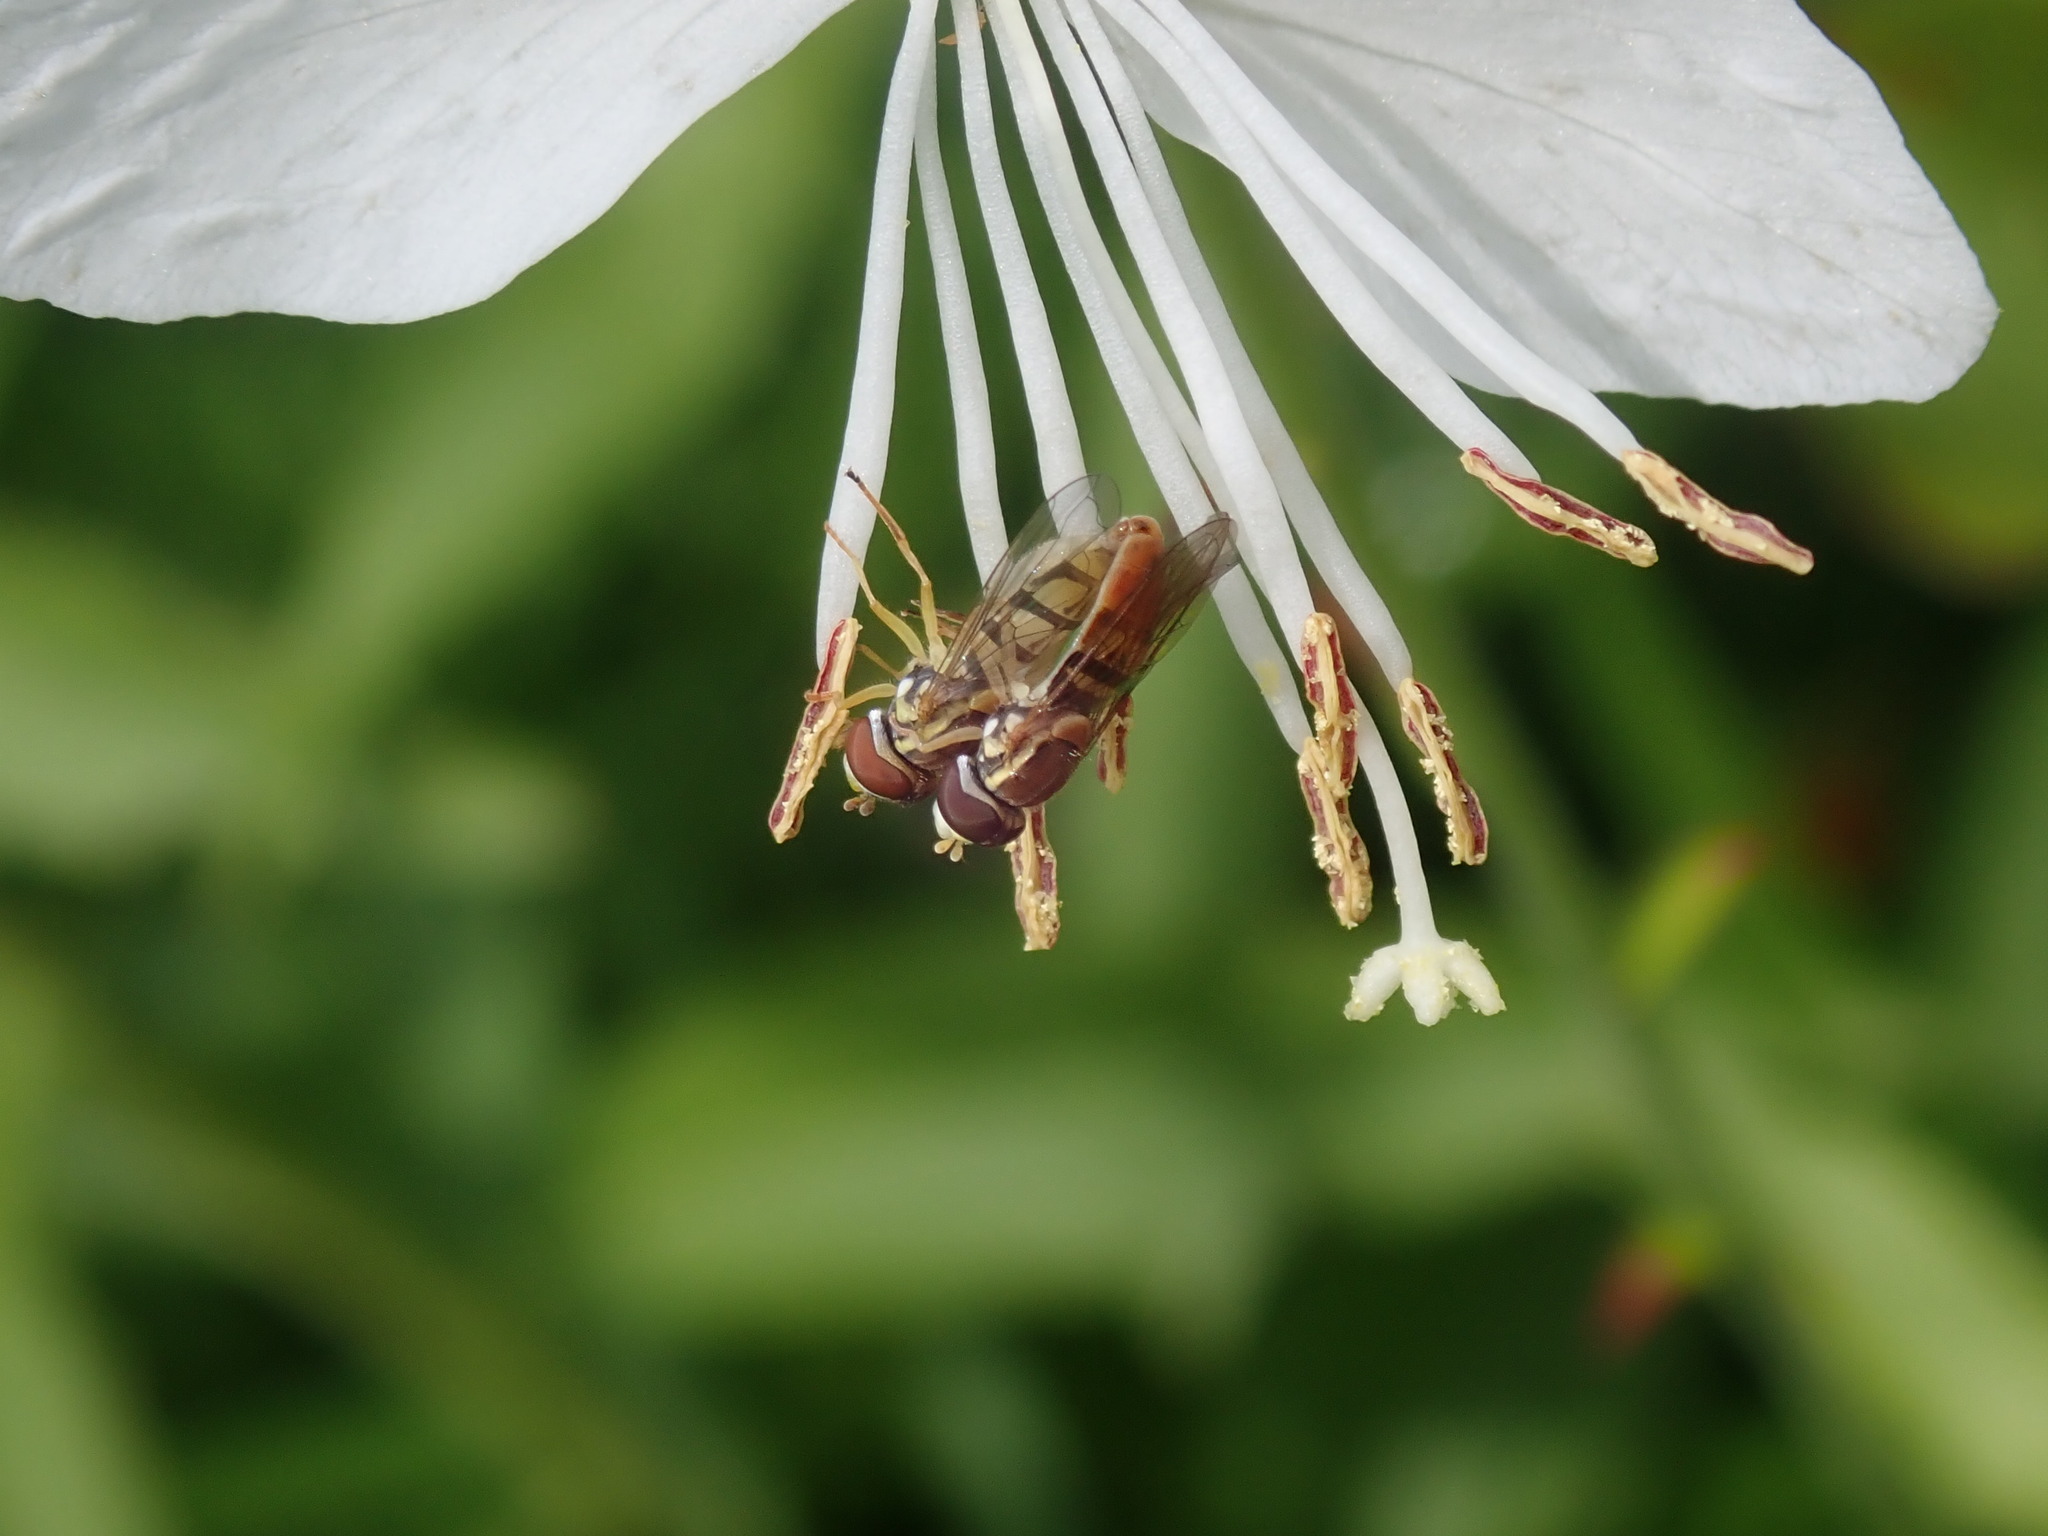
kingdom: Animalia
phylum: Arthropoda
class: Insecta
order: Diptera
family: Syrphidae
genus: Toxomerus
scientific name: Toxomerus marginatus
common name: Syrphid fly
